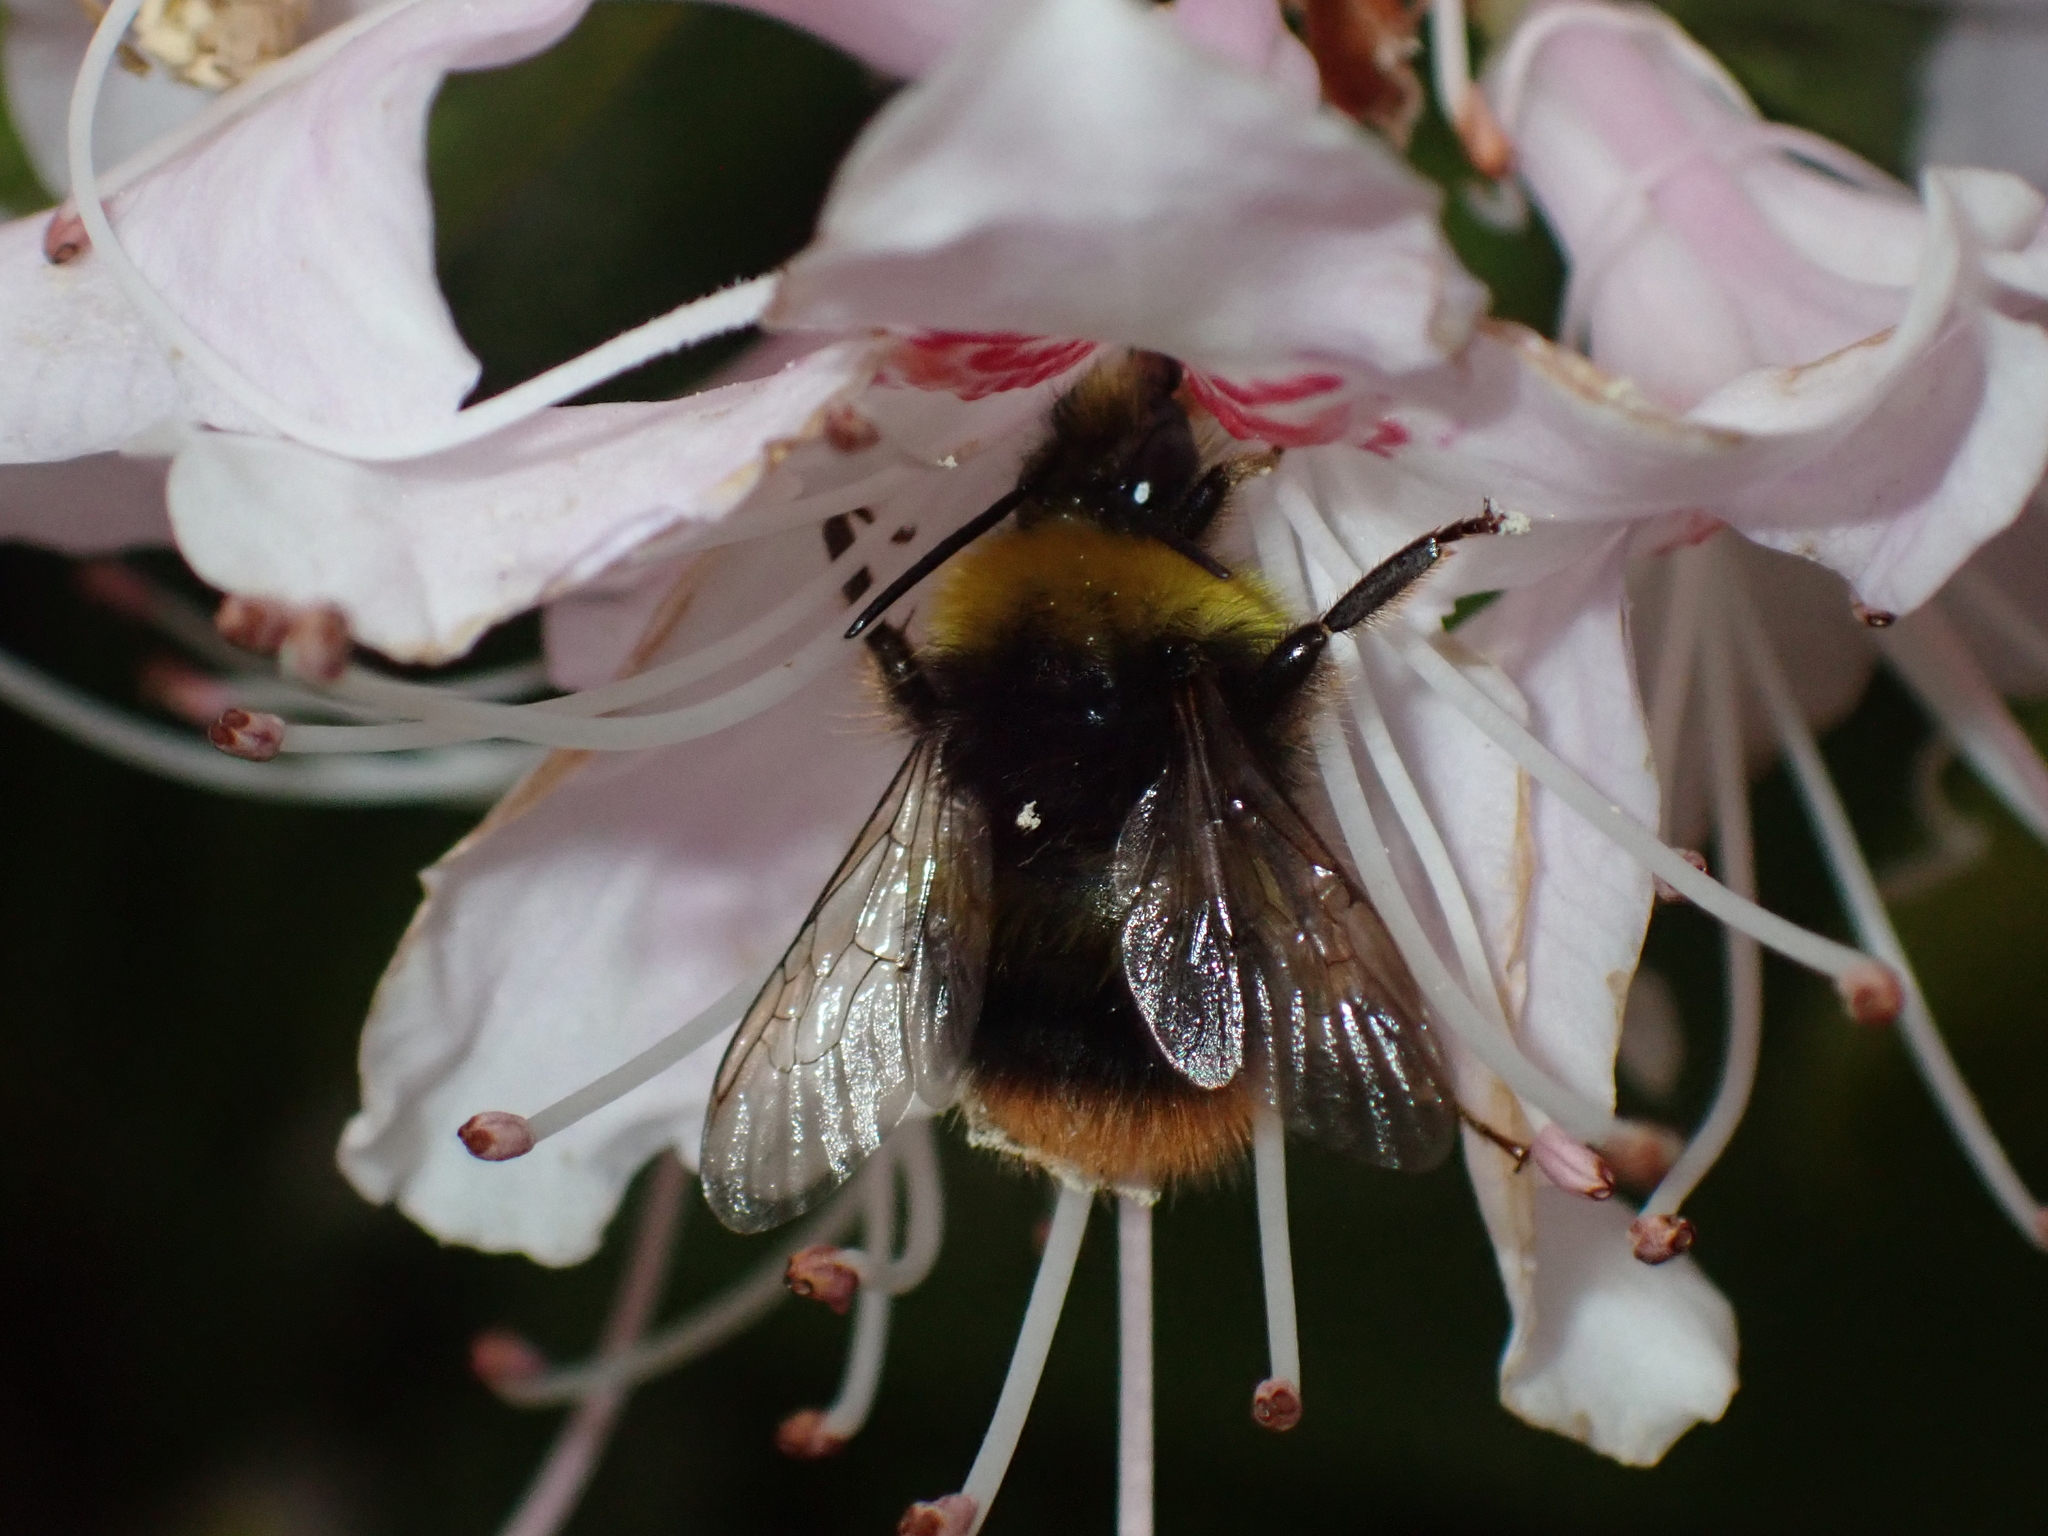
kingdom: Animalia
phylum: Arthropoda
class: Insecta
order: Hymenoptera
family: Apidae
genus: Bombus
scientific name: Bombus pratorum
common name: Early humble-bee
